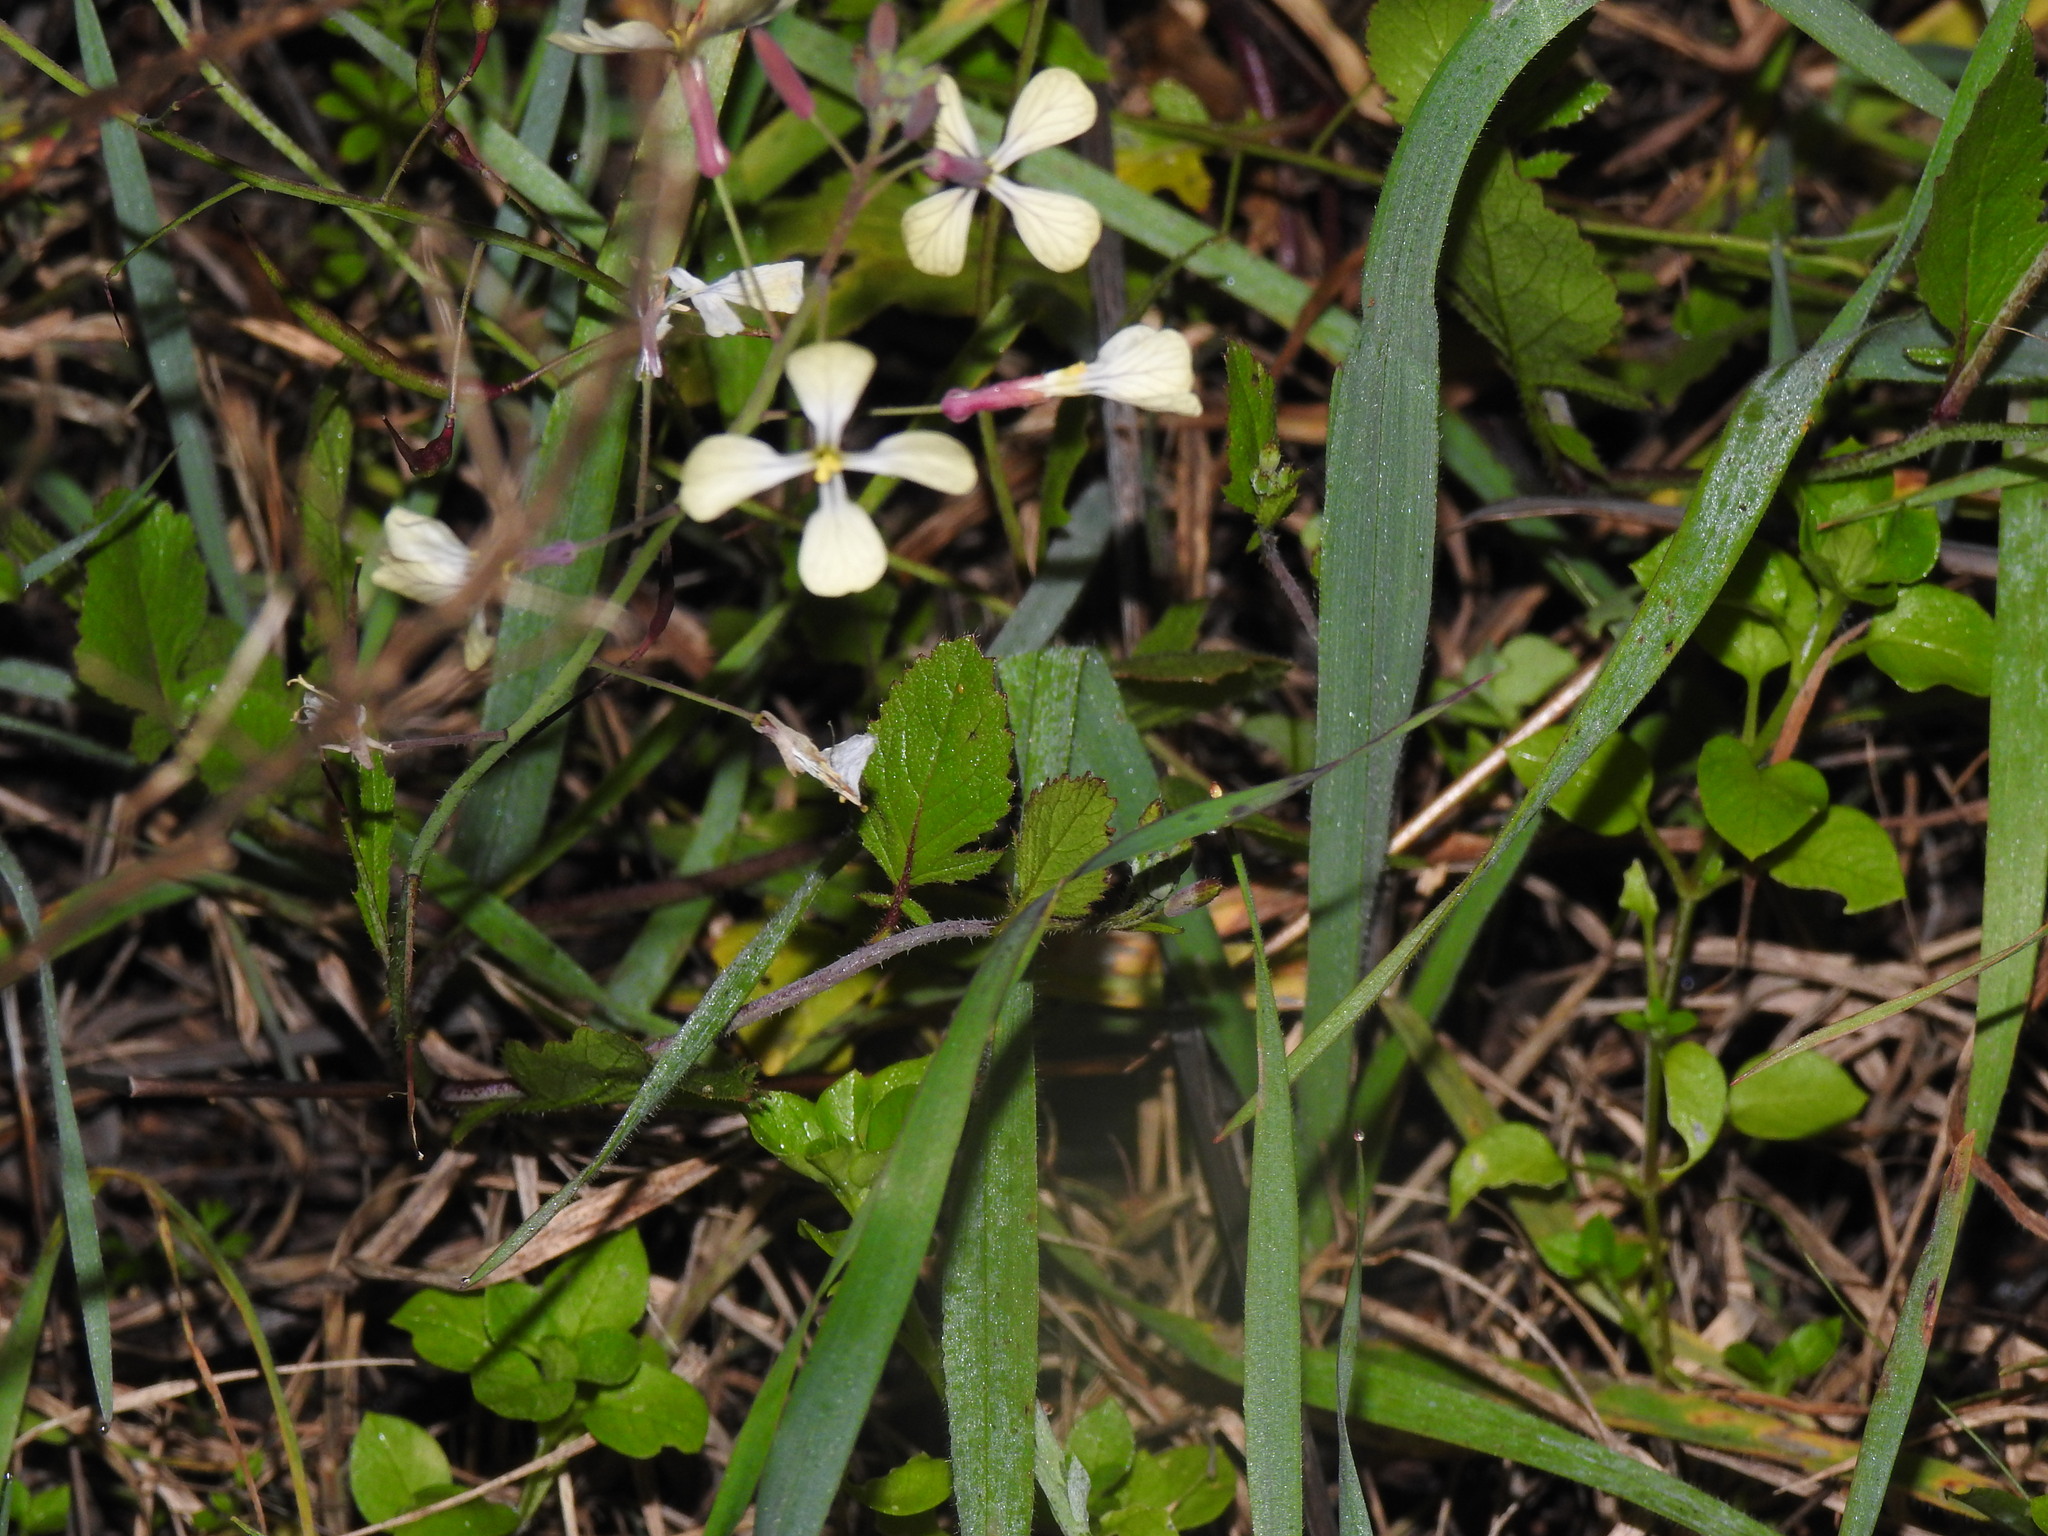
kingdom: Plantae
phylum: Tracheophyta
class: Magnoliopsida
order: Brassicales
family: Brassicaceae
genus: Raphanus
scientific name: Raphanus raphanistrum
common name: Wild radish
